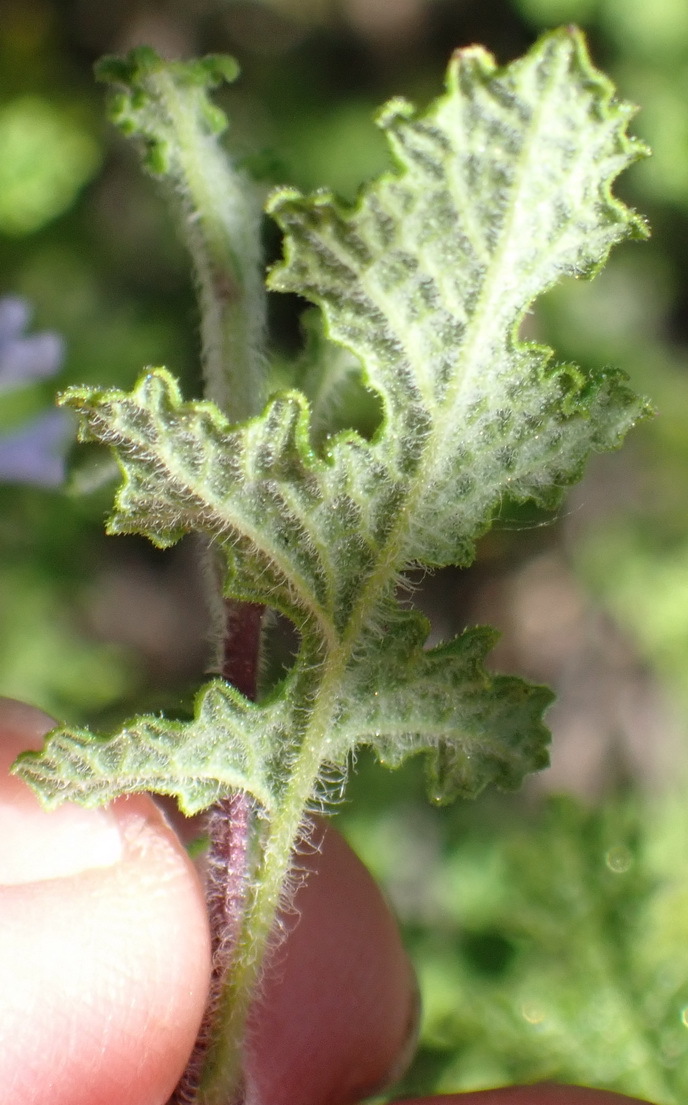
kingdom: Plantae
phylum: Tracheophyta
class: Magnoliopsida
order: Lamiales
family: Lamiaceae
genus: Salvia
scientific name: Salvia stenophylla
